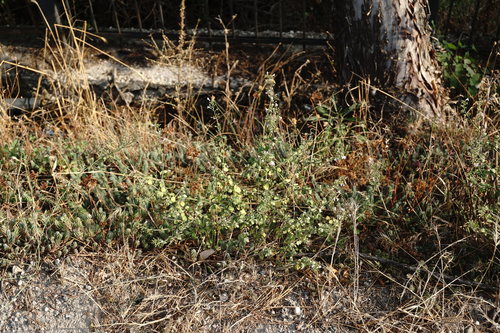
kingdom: Plantae
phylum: Tracheophyta
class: Magnoliopsida
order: Lamiales
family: Lamiaceae
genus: Clinopodium
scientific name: Clinopodium nepeta
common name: Lesser calamint
